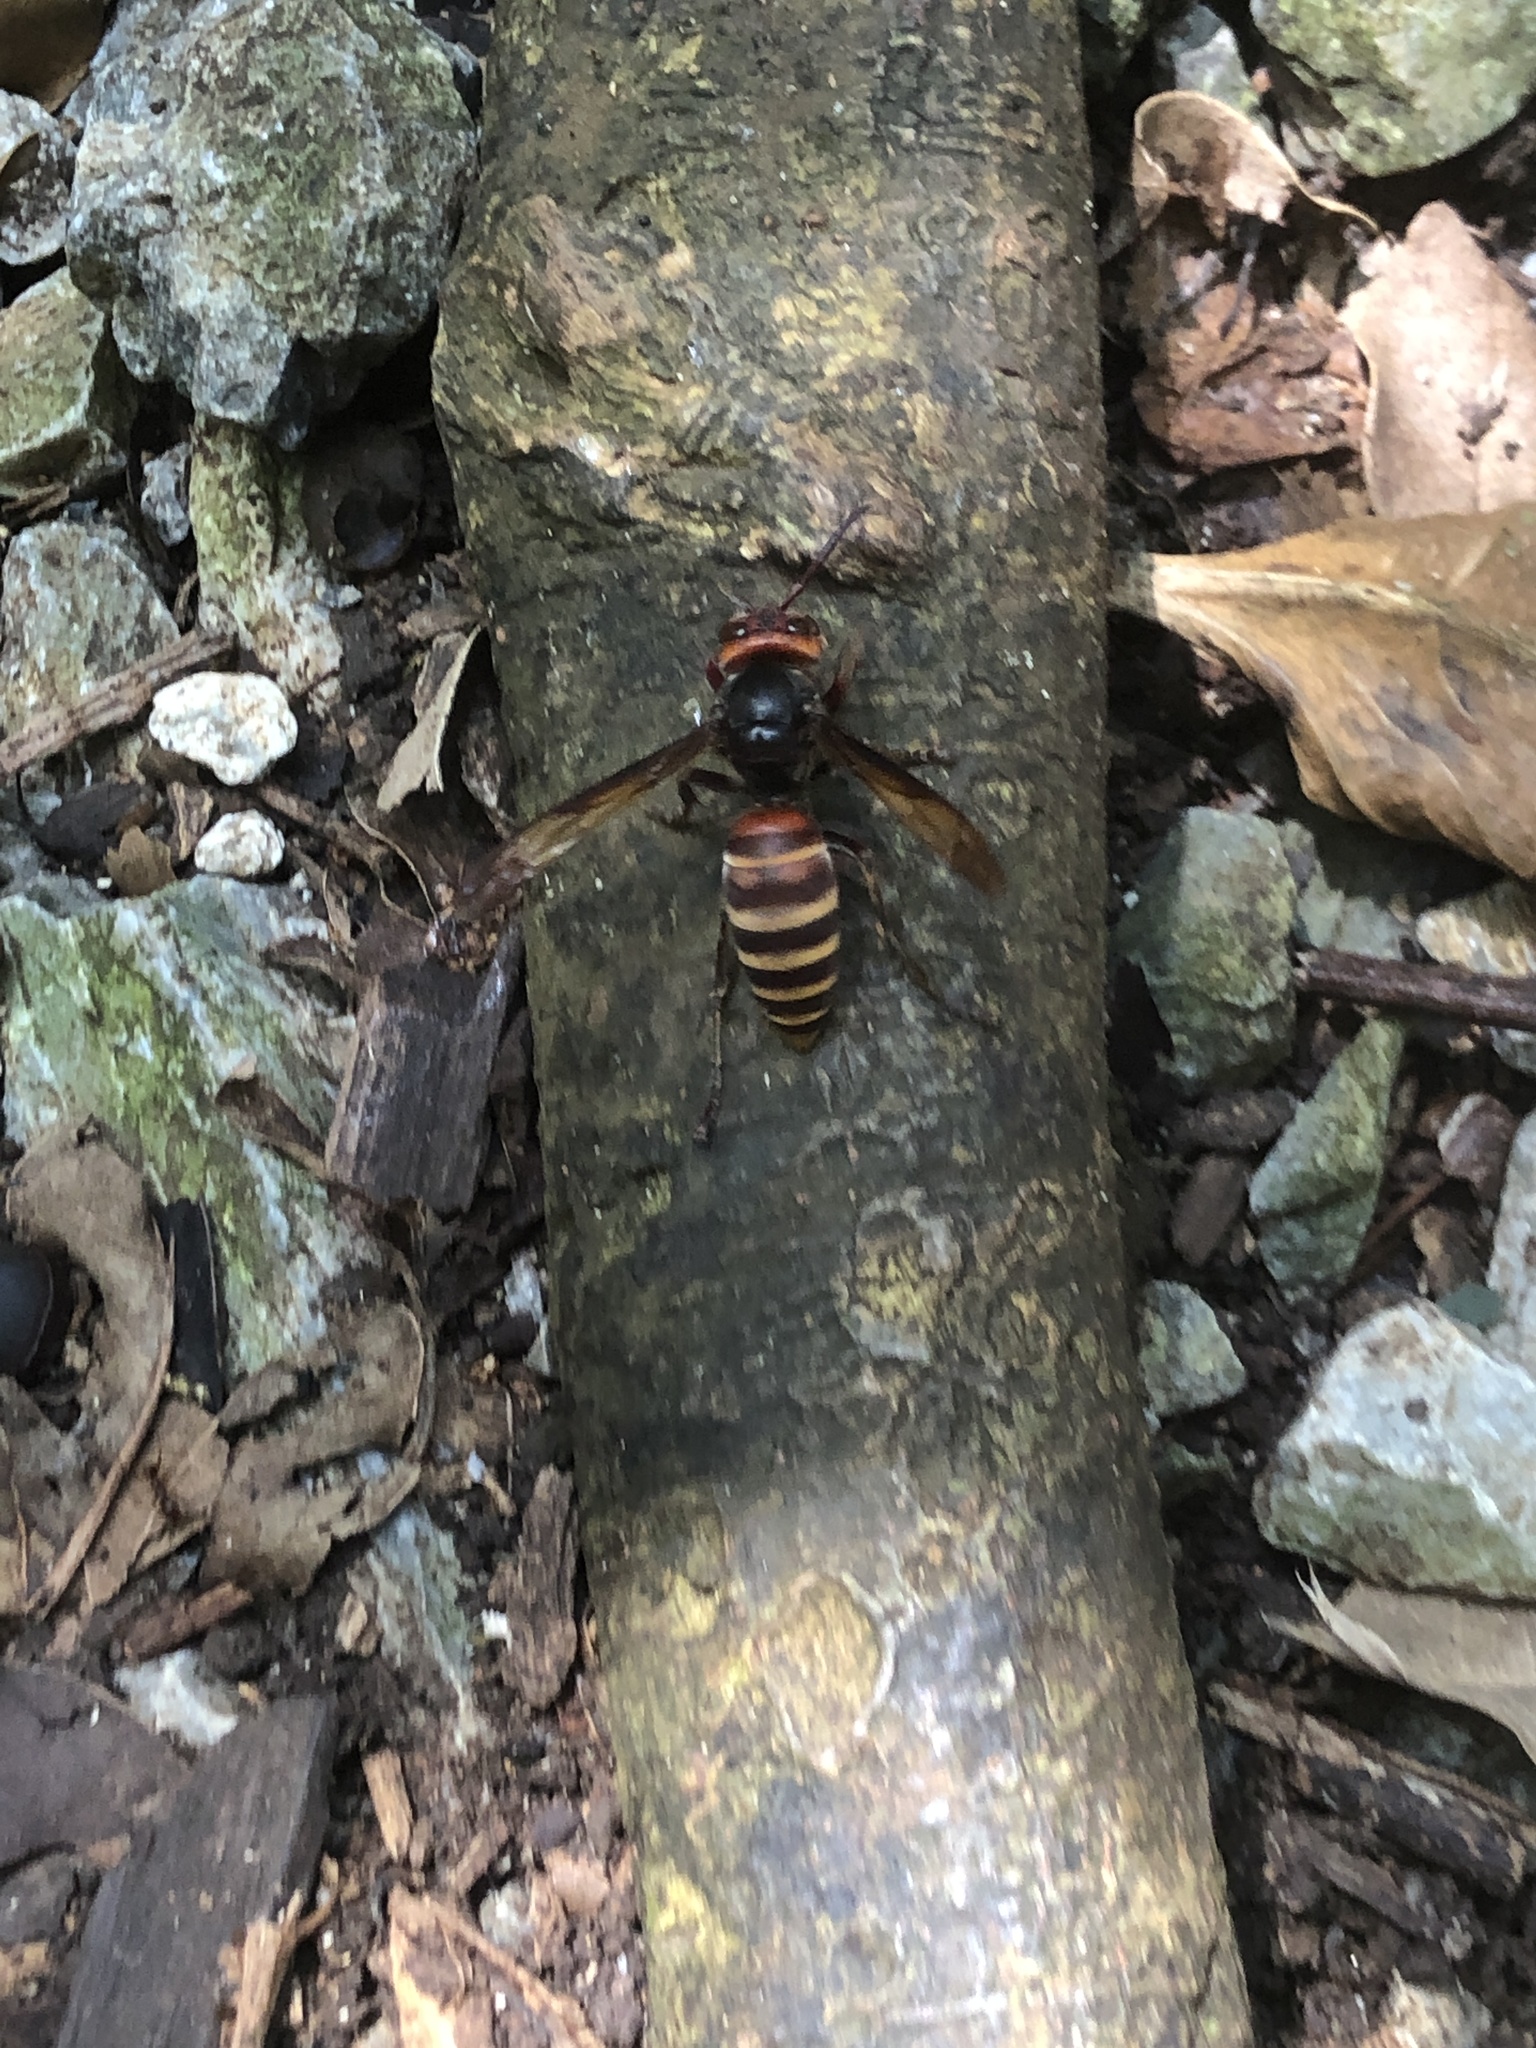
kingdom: Animalia
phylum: Arthropoda
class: Insecta
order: Hymenoptera
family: Vespidae
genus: Vespa
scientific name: Vespa analis
